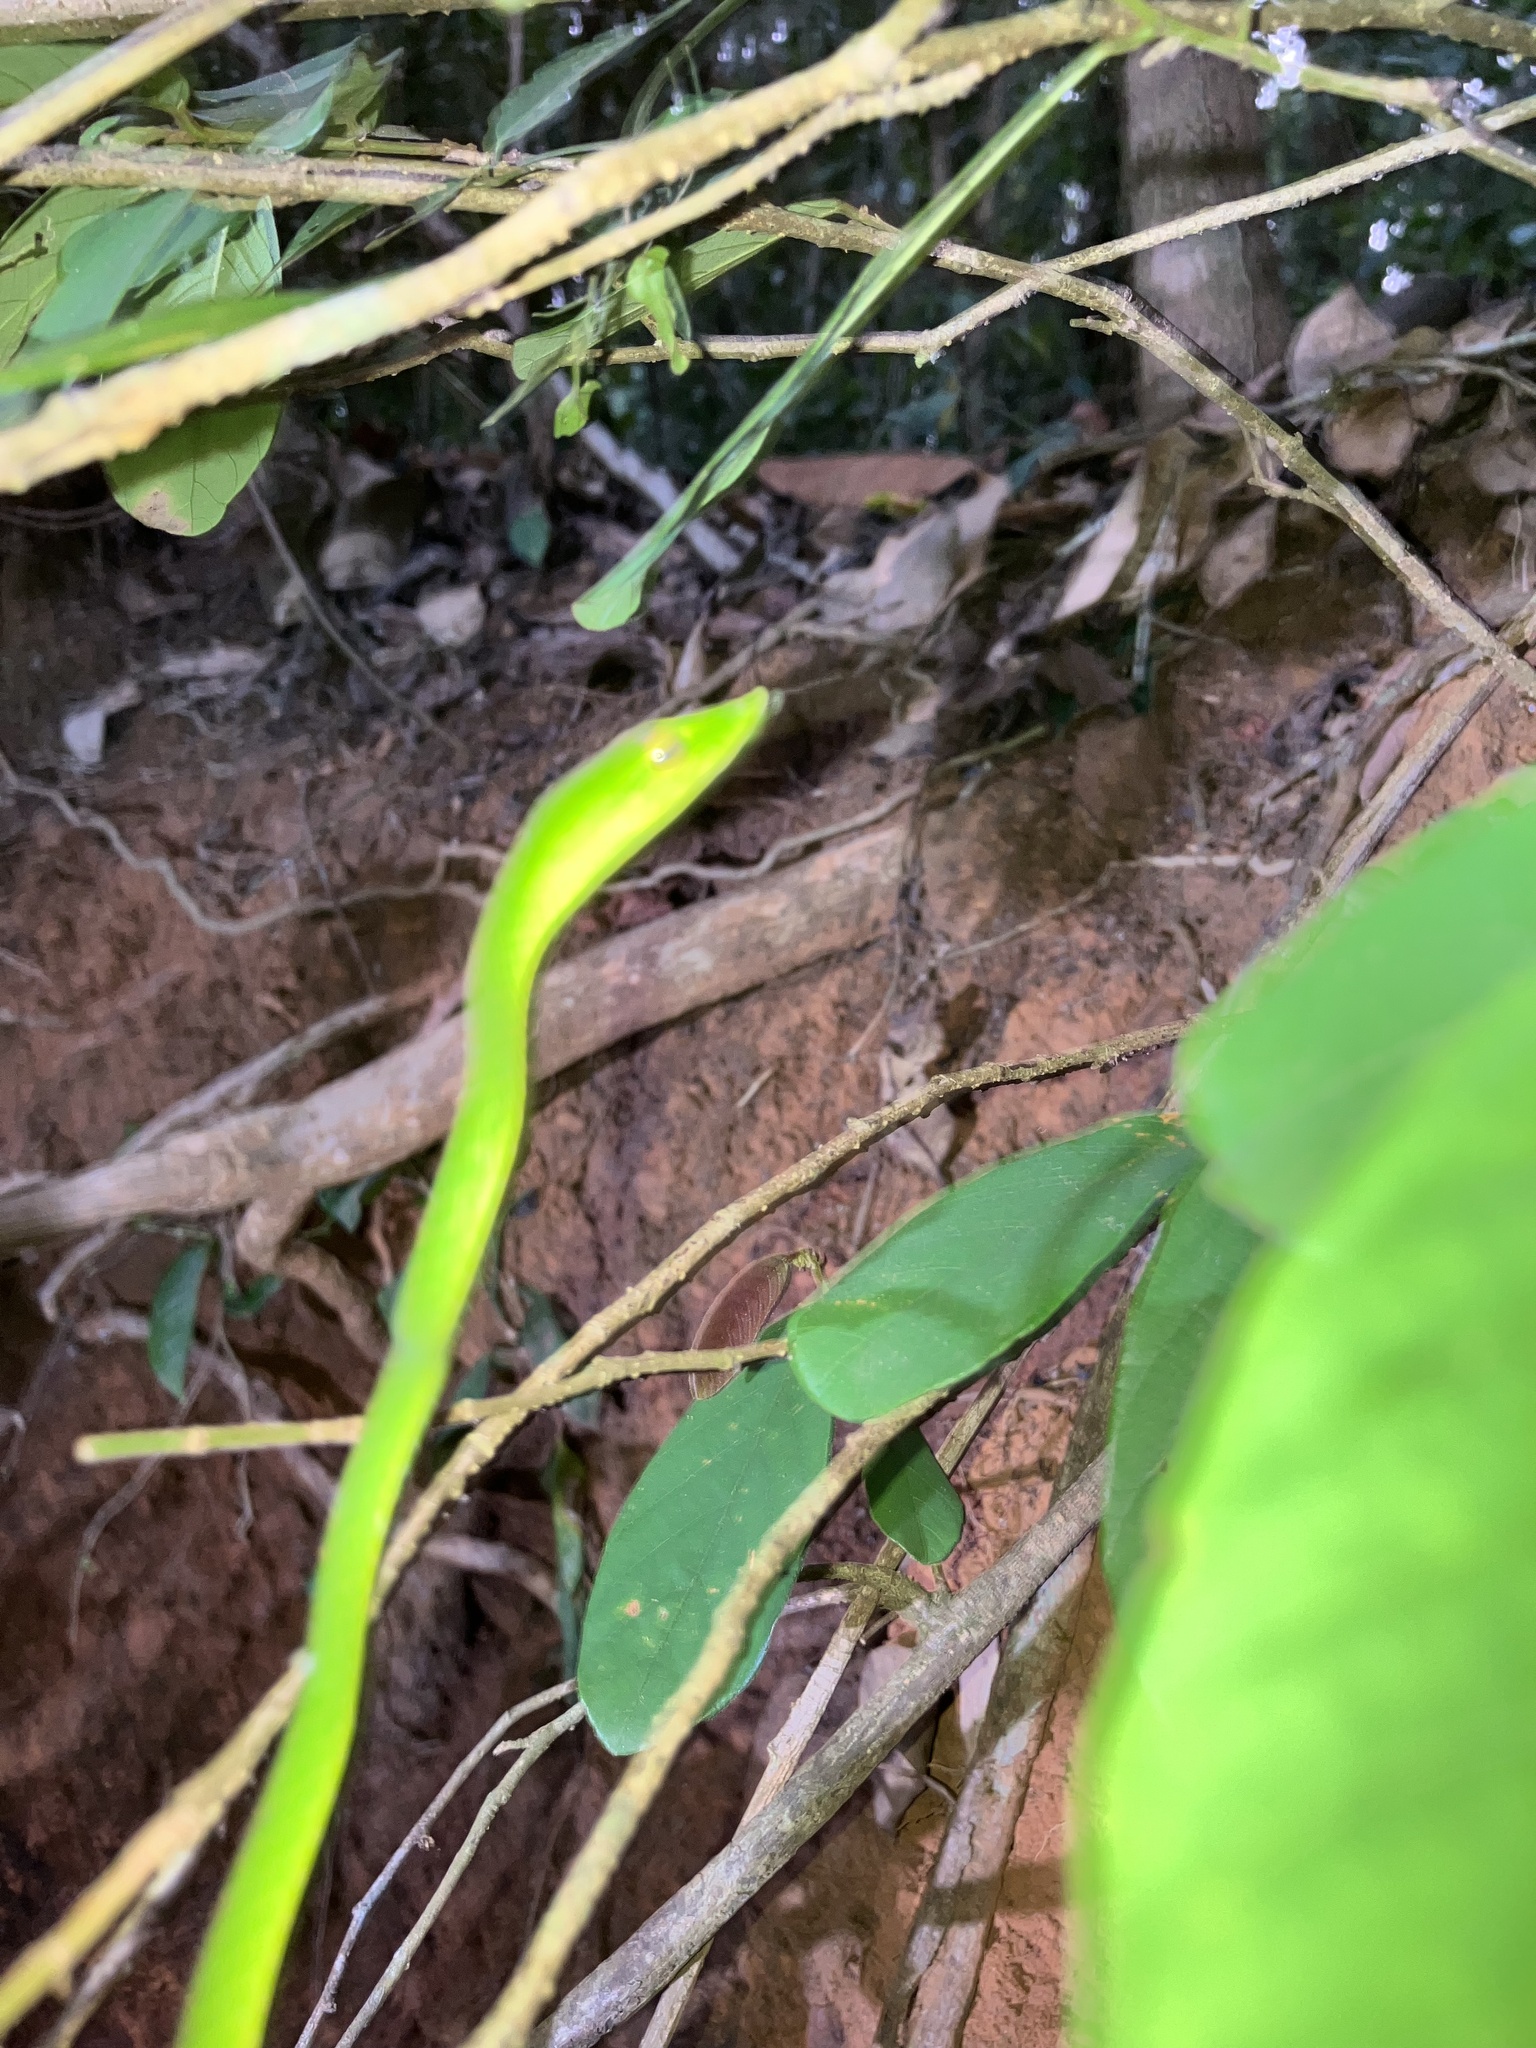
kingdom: Animalia
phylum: Chordata
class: Squamata
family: Colubridae
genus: Ahaetulla
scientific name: Ahaetulla farnsworthi
